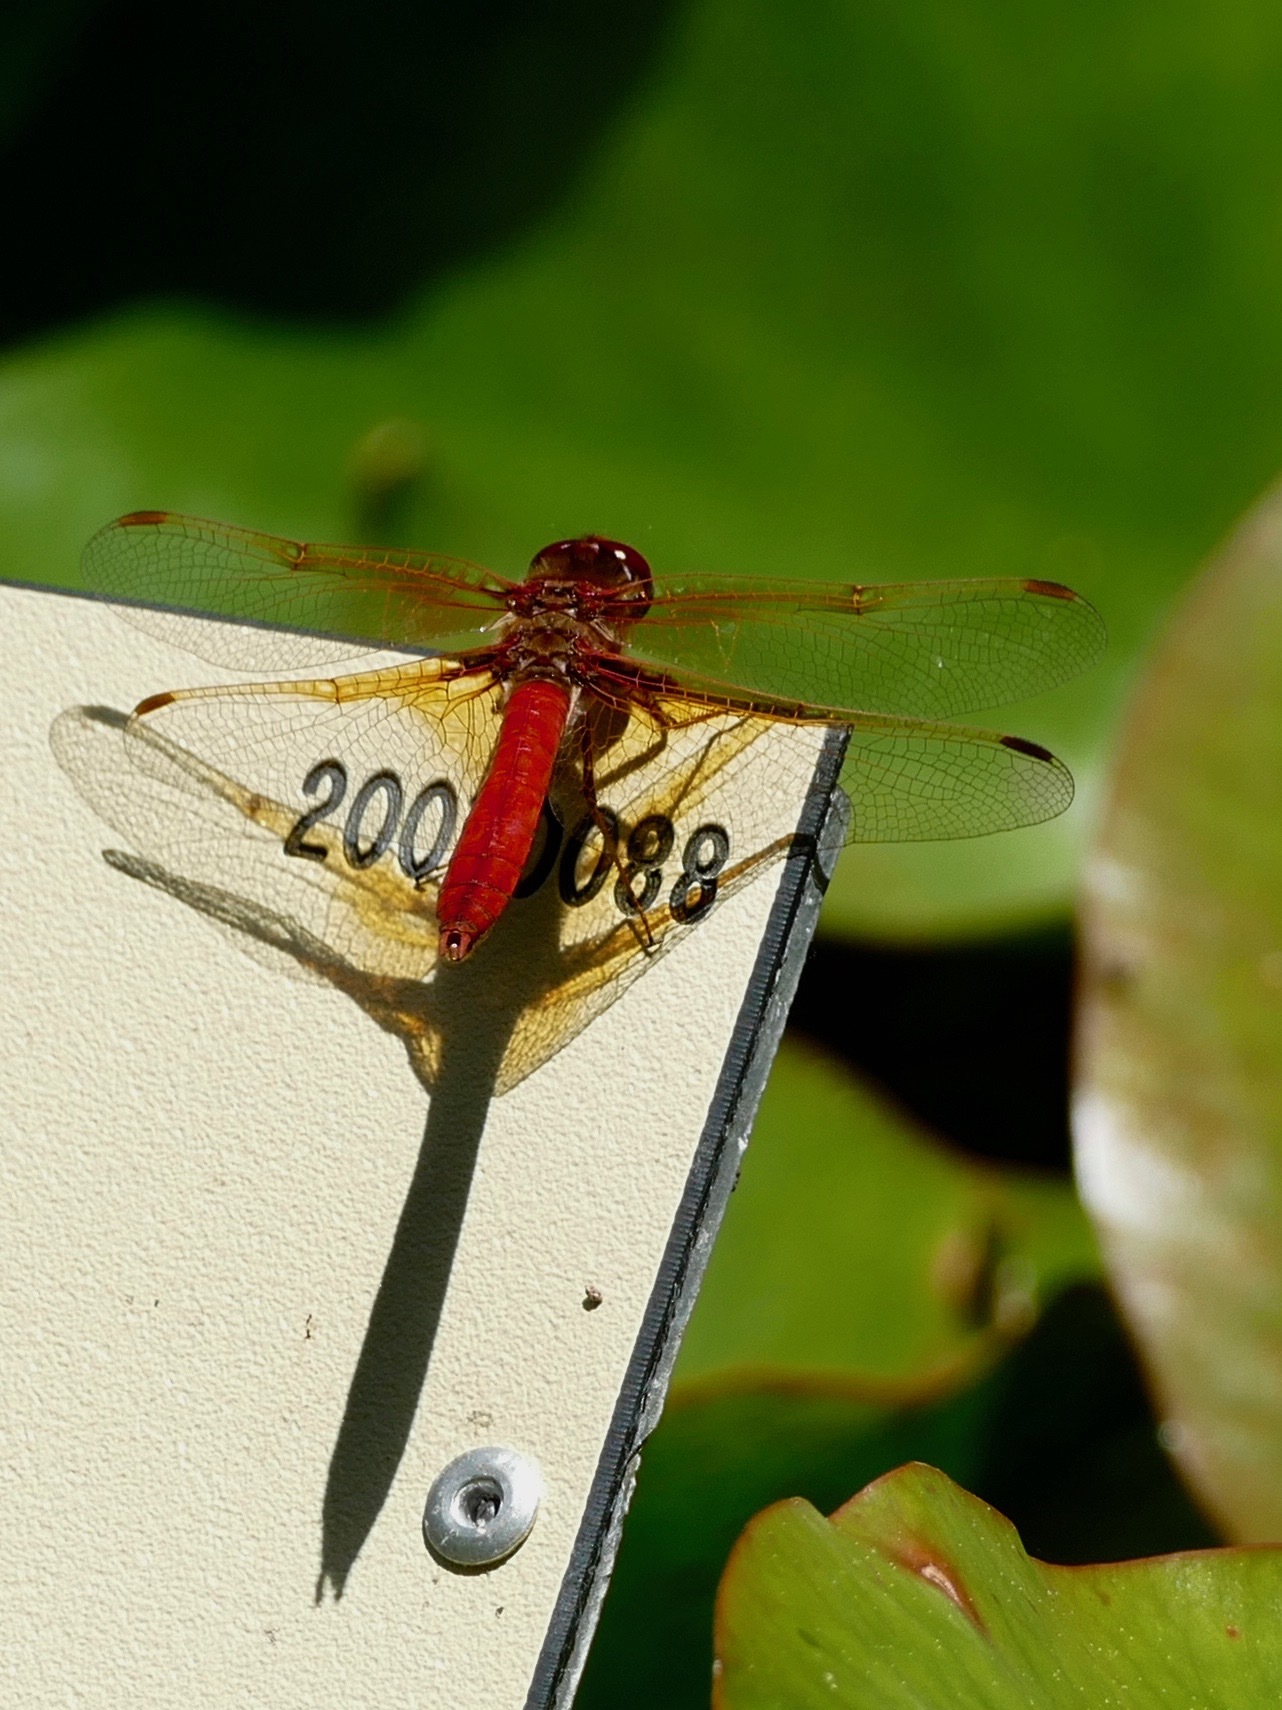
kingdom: Animalia
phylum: Arthropoda
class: Insecta
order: Odonata
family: Libellulidae
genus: Sympetrum
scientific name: Sympetrum illotum
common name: Cardinal meadowhawk
